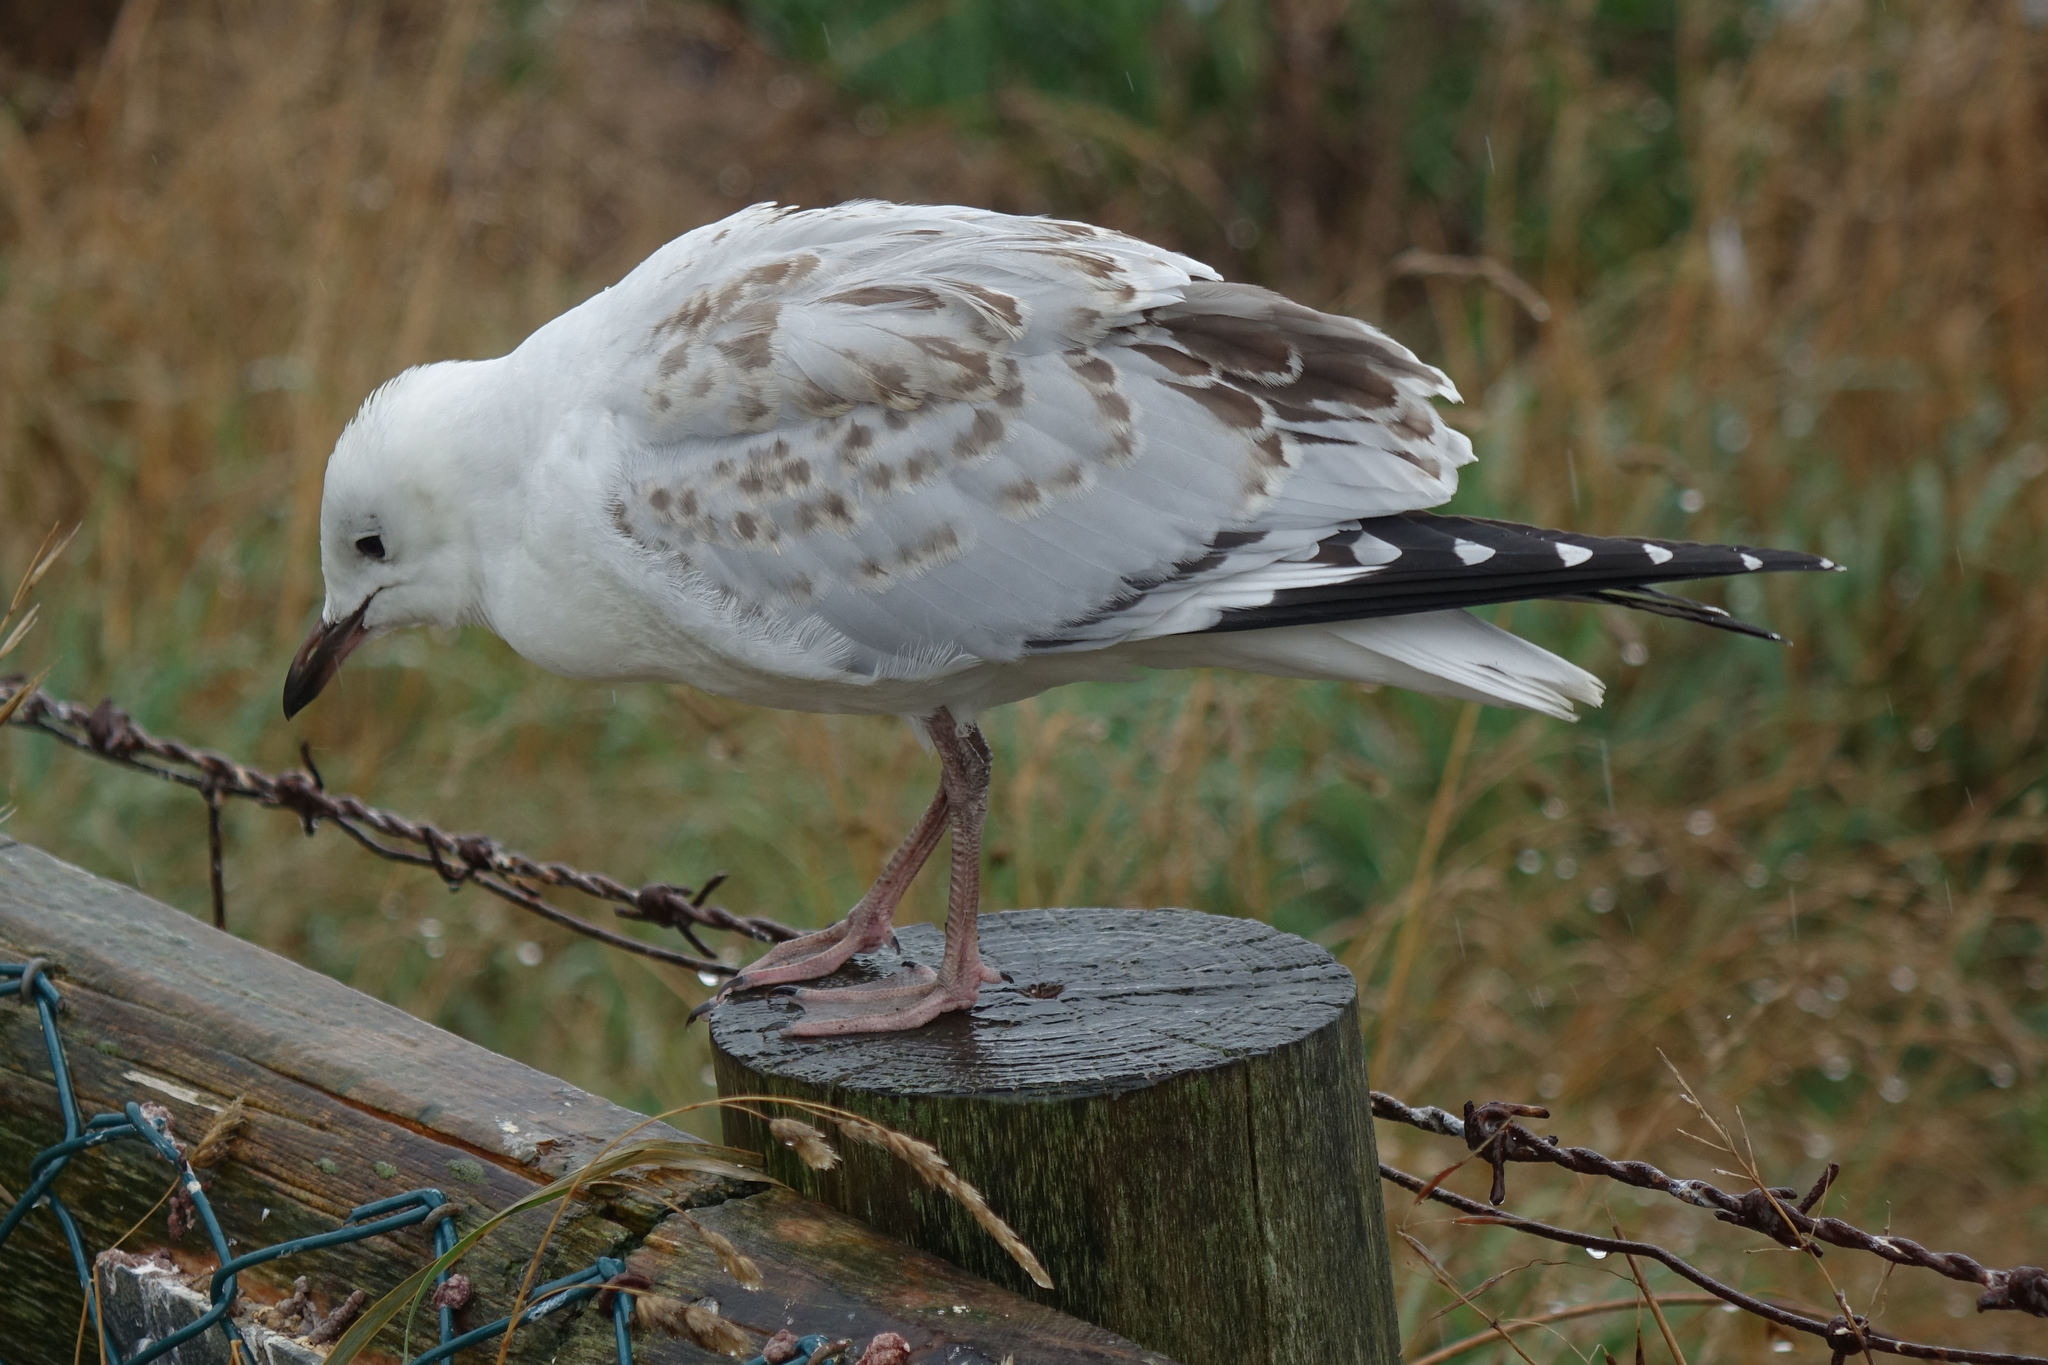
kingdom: Animalia
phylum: Chordata
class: Aves
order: Charadriiformes
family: Laridae
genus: Chroicocephalus
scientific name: Chroicocephalus novaehollandiae
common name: Silver gull
